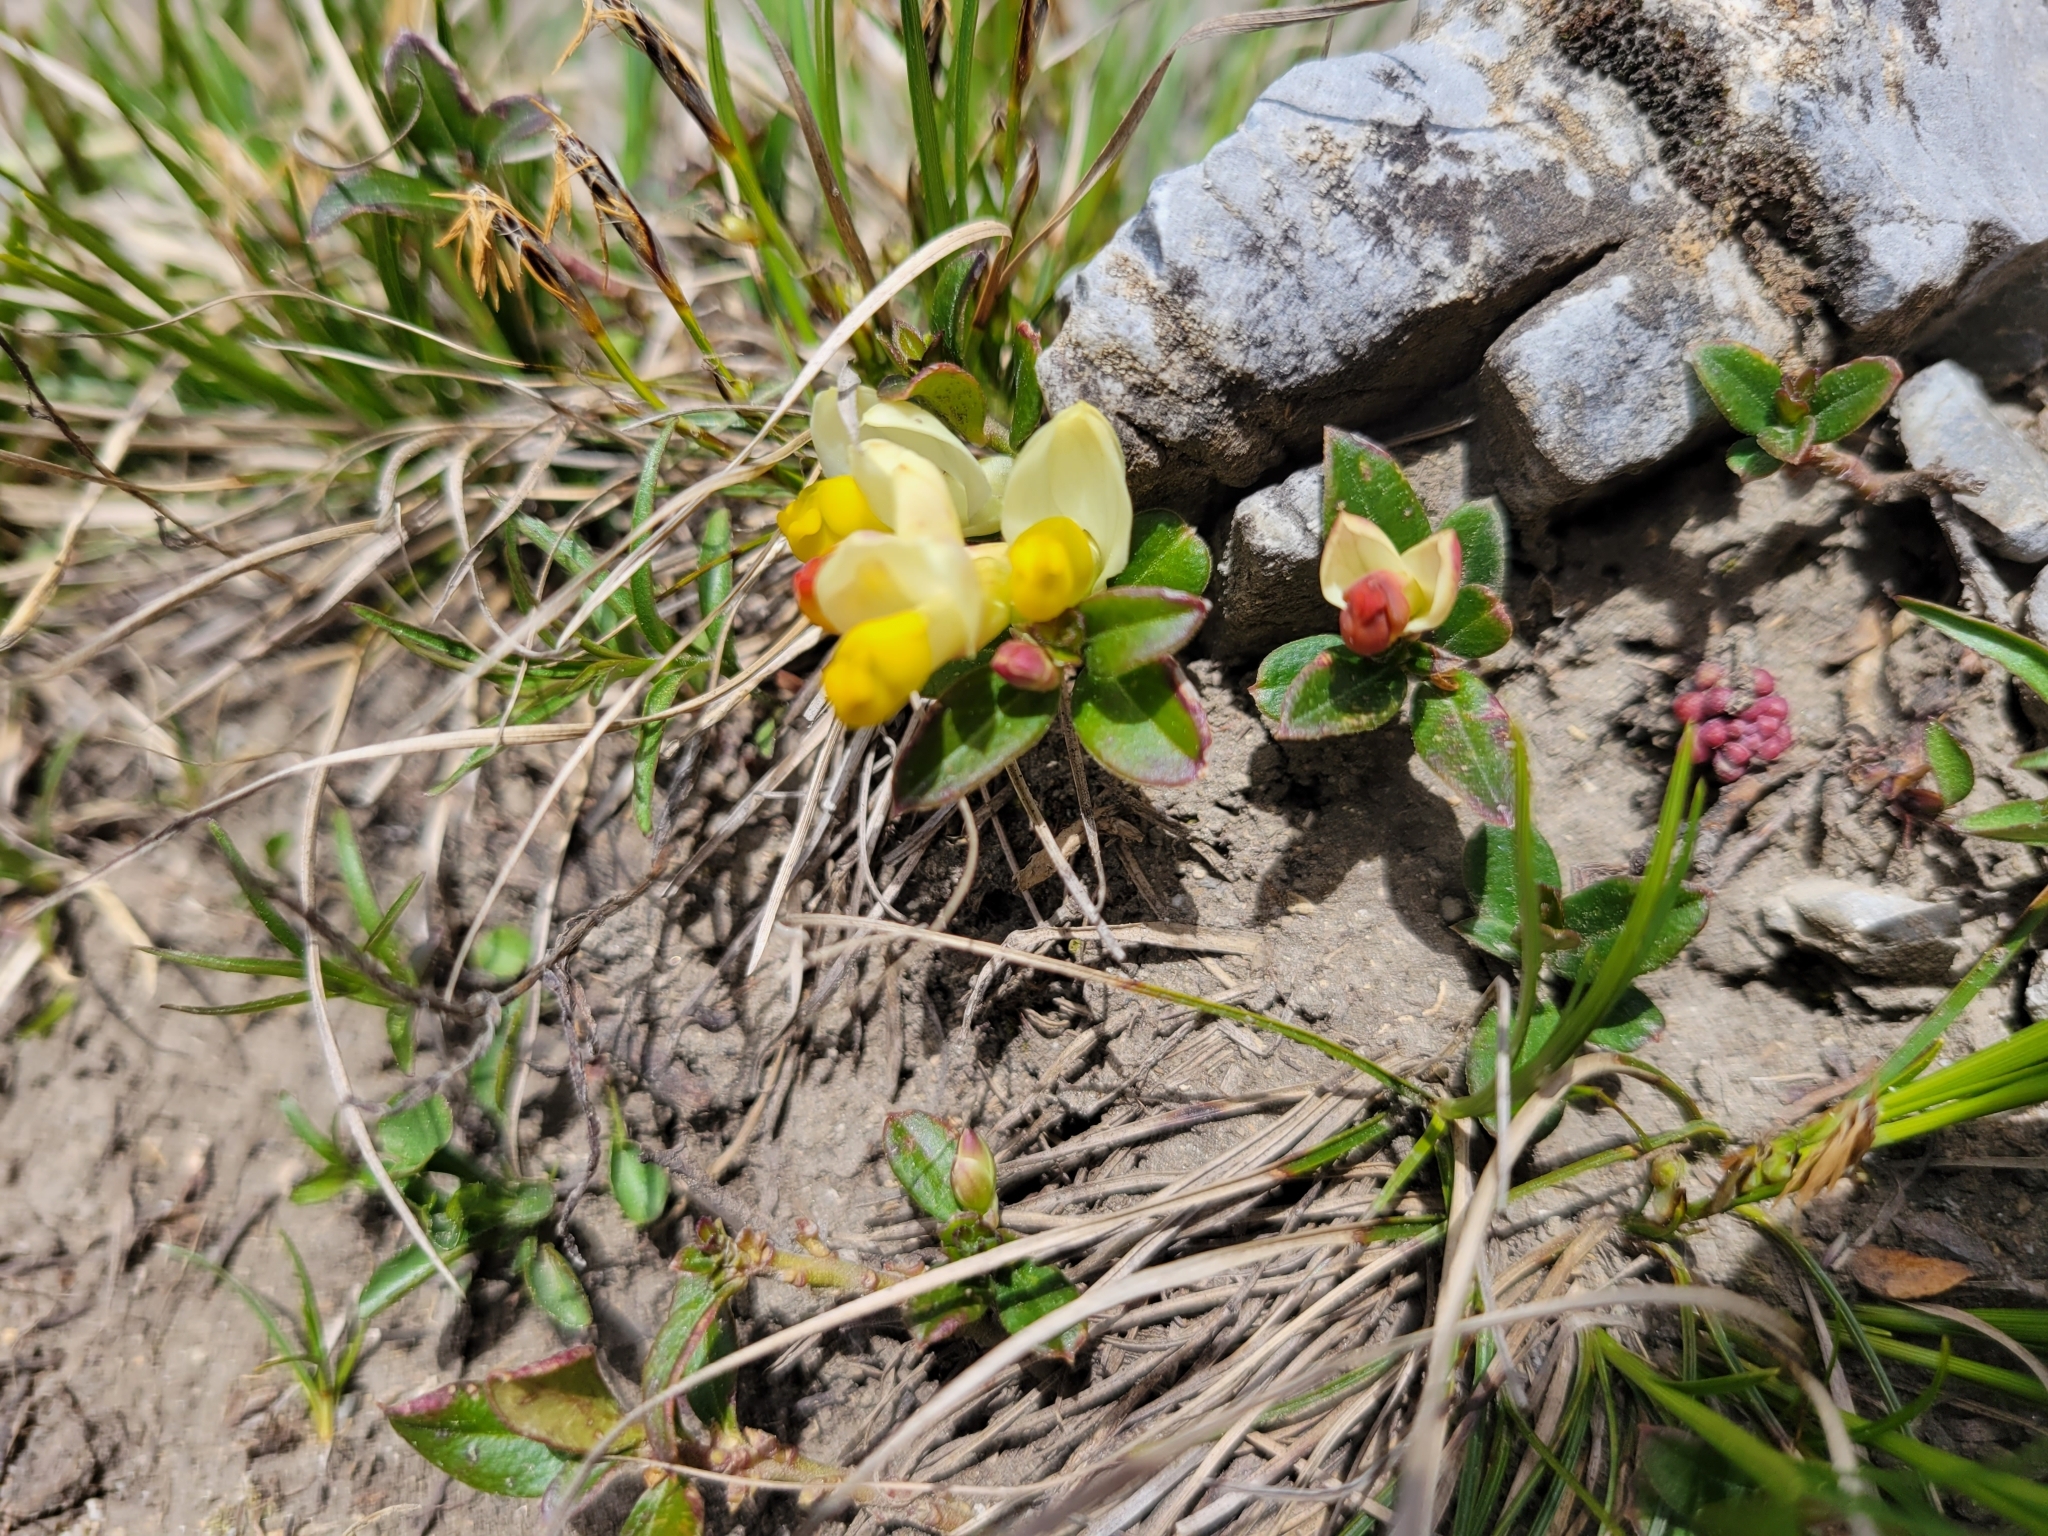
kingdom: Plantae
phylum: Tracheophyta
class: Magnoliopsida
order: Fabales
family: Polygalaceae
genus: Polygaloides
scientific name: Polygaloides chamaebuxus
